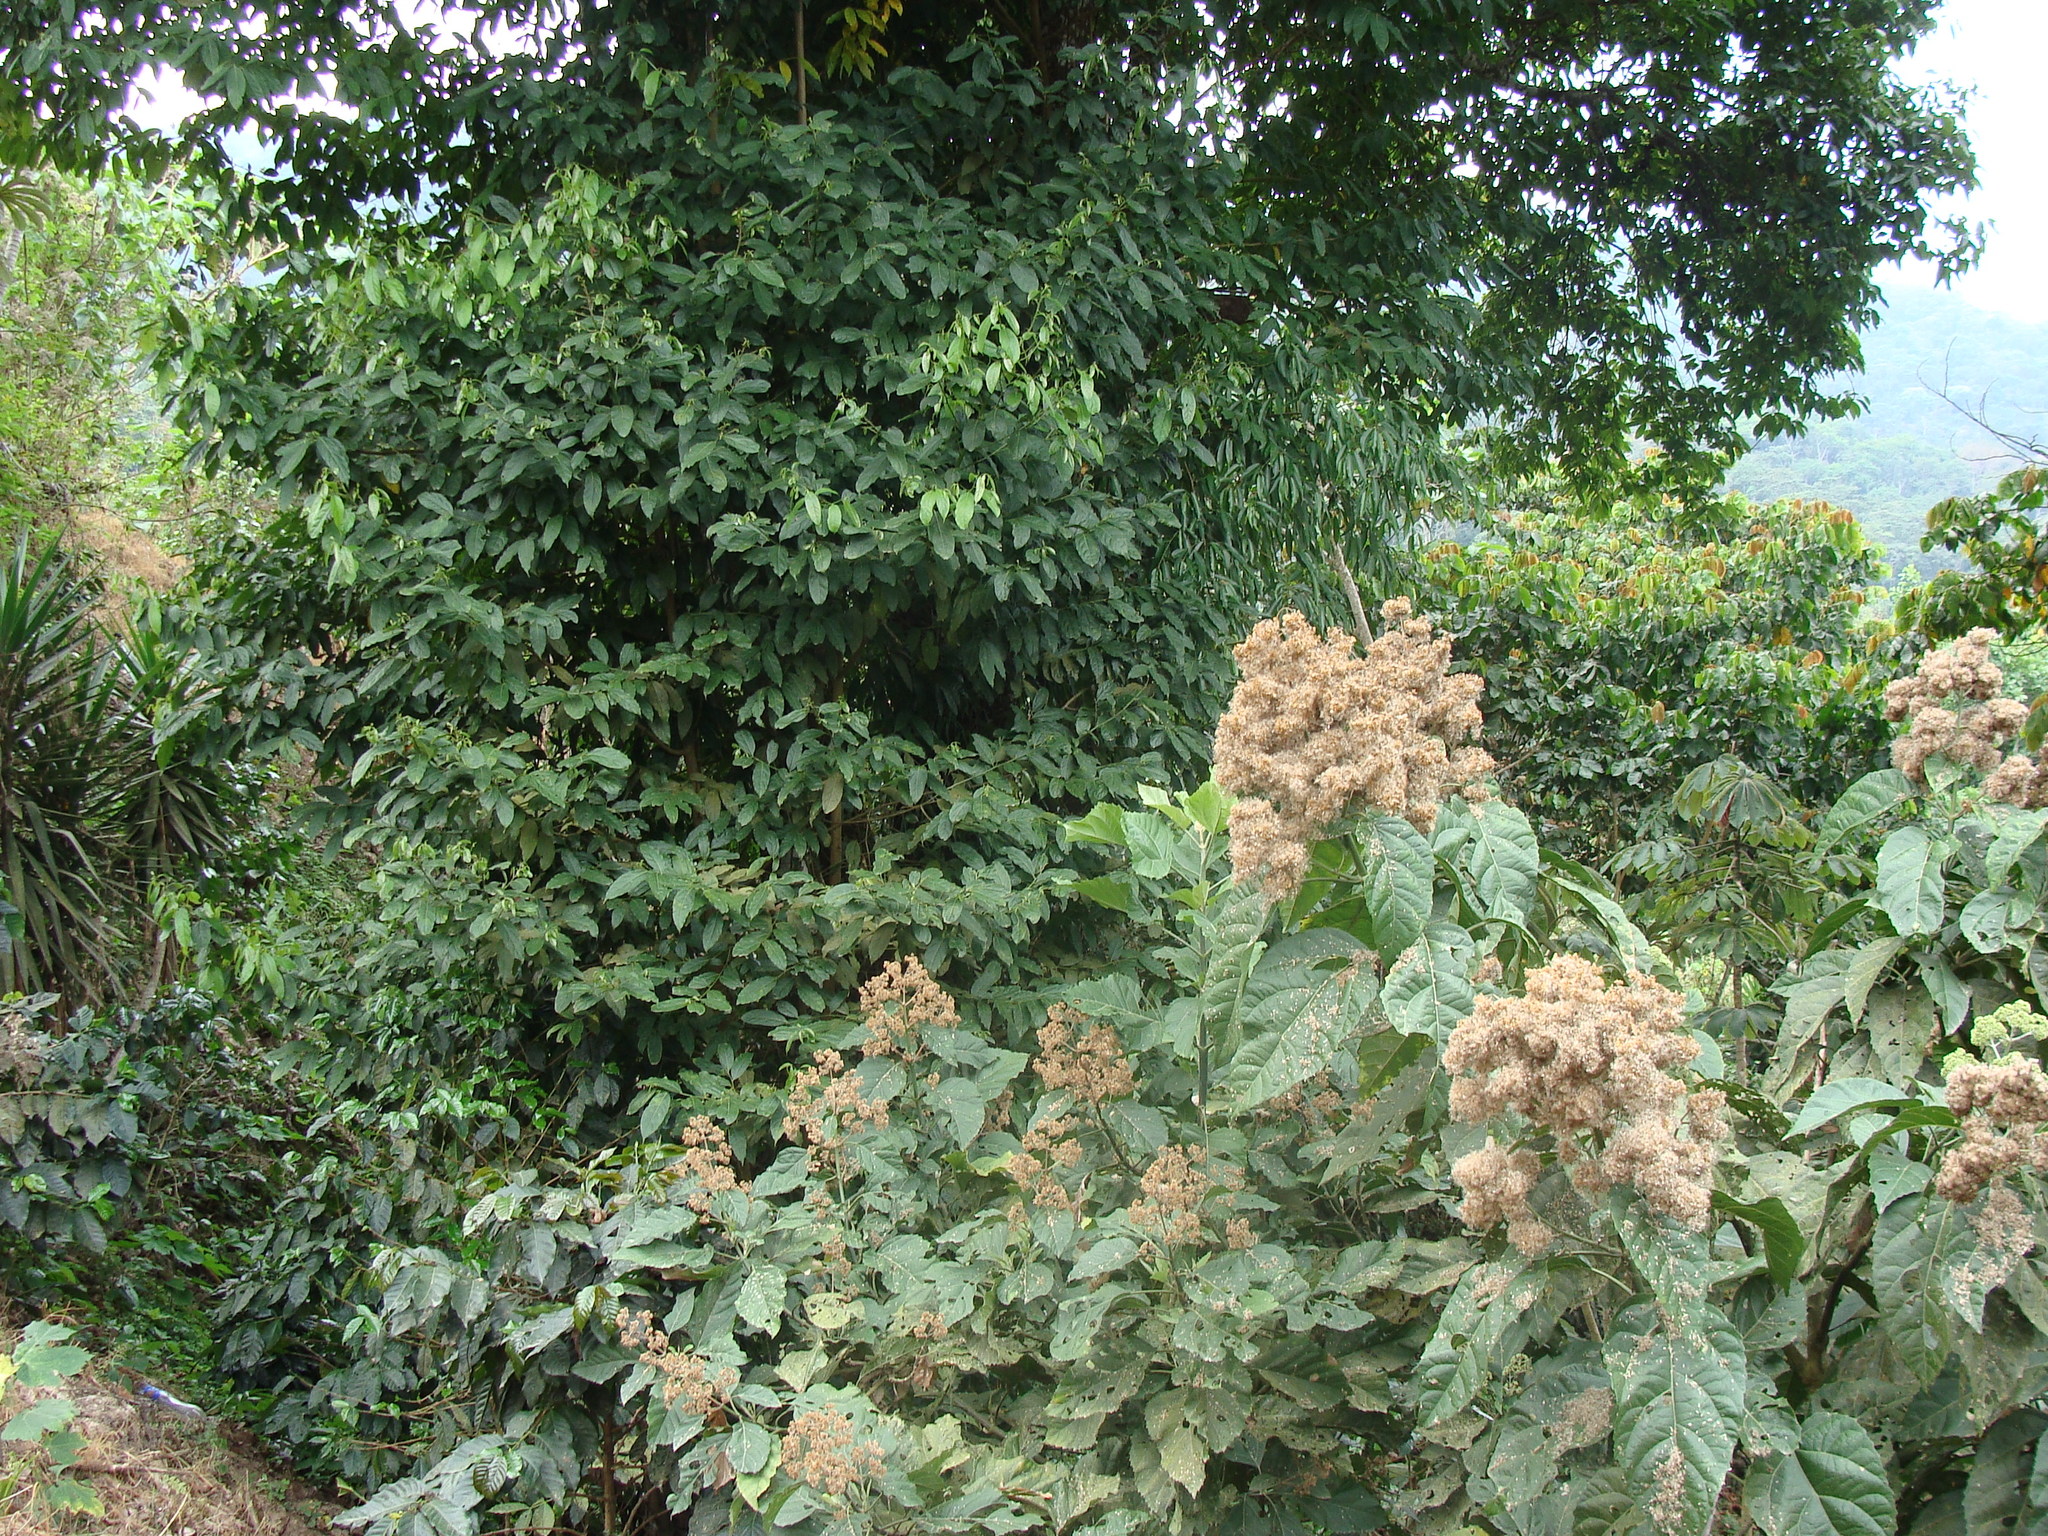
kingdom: Plantae
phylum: Tracheophyta
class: Magnoliopsida
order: Asterales
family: Asteraceae
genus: Critonia
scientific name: Critonia morifolia
